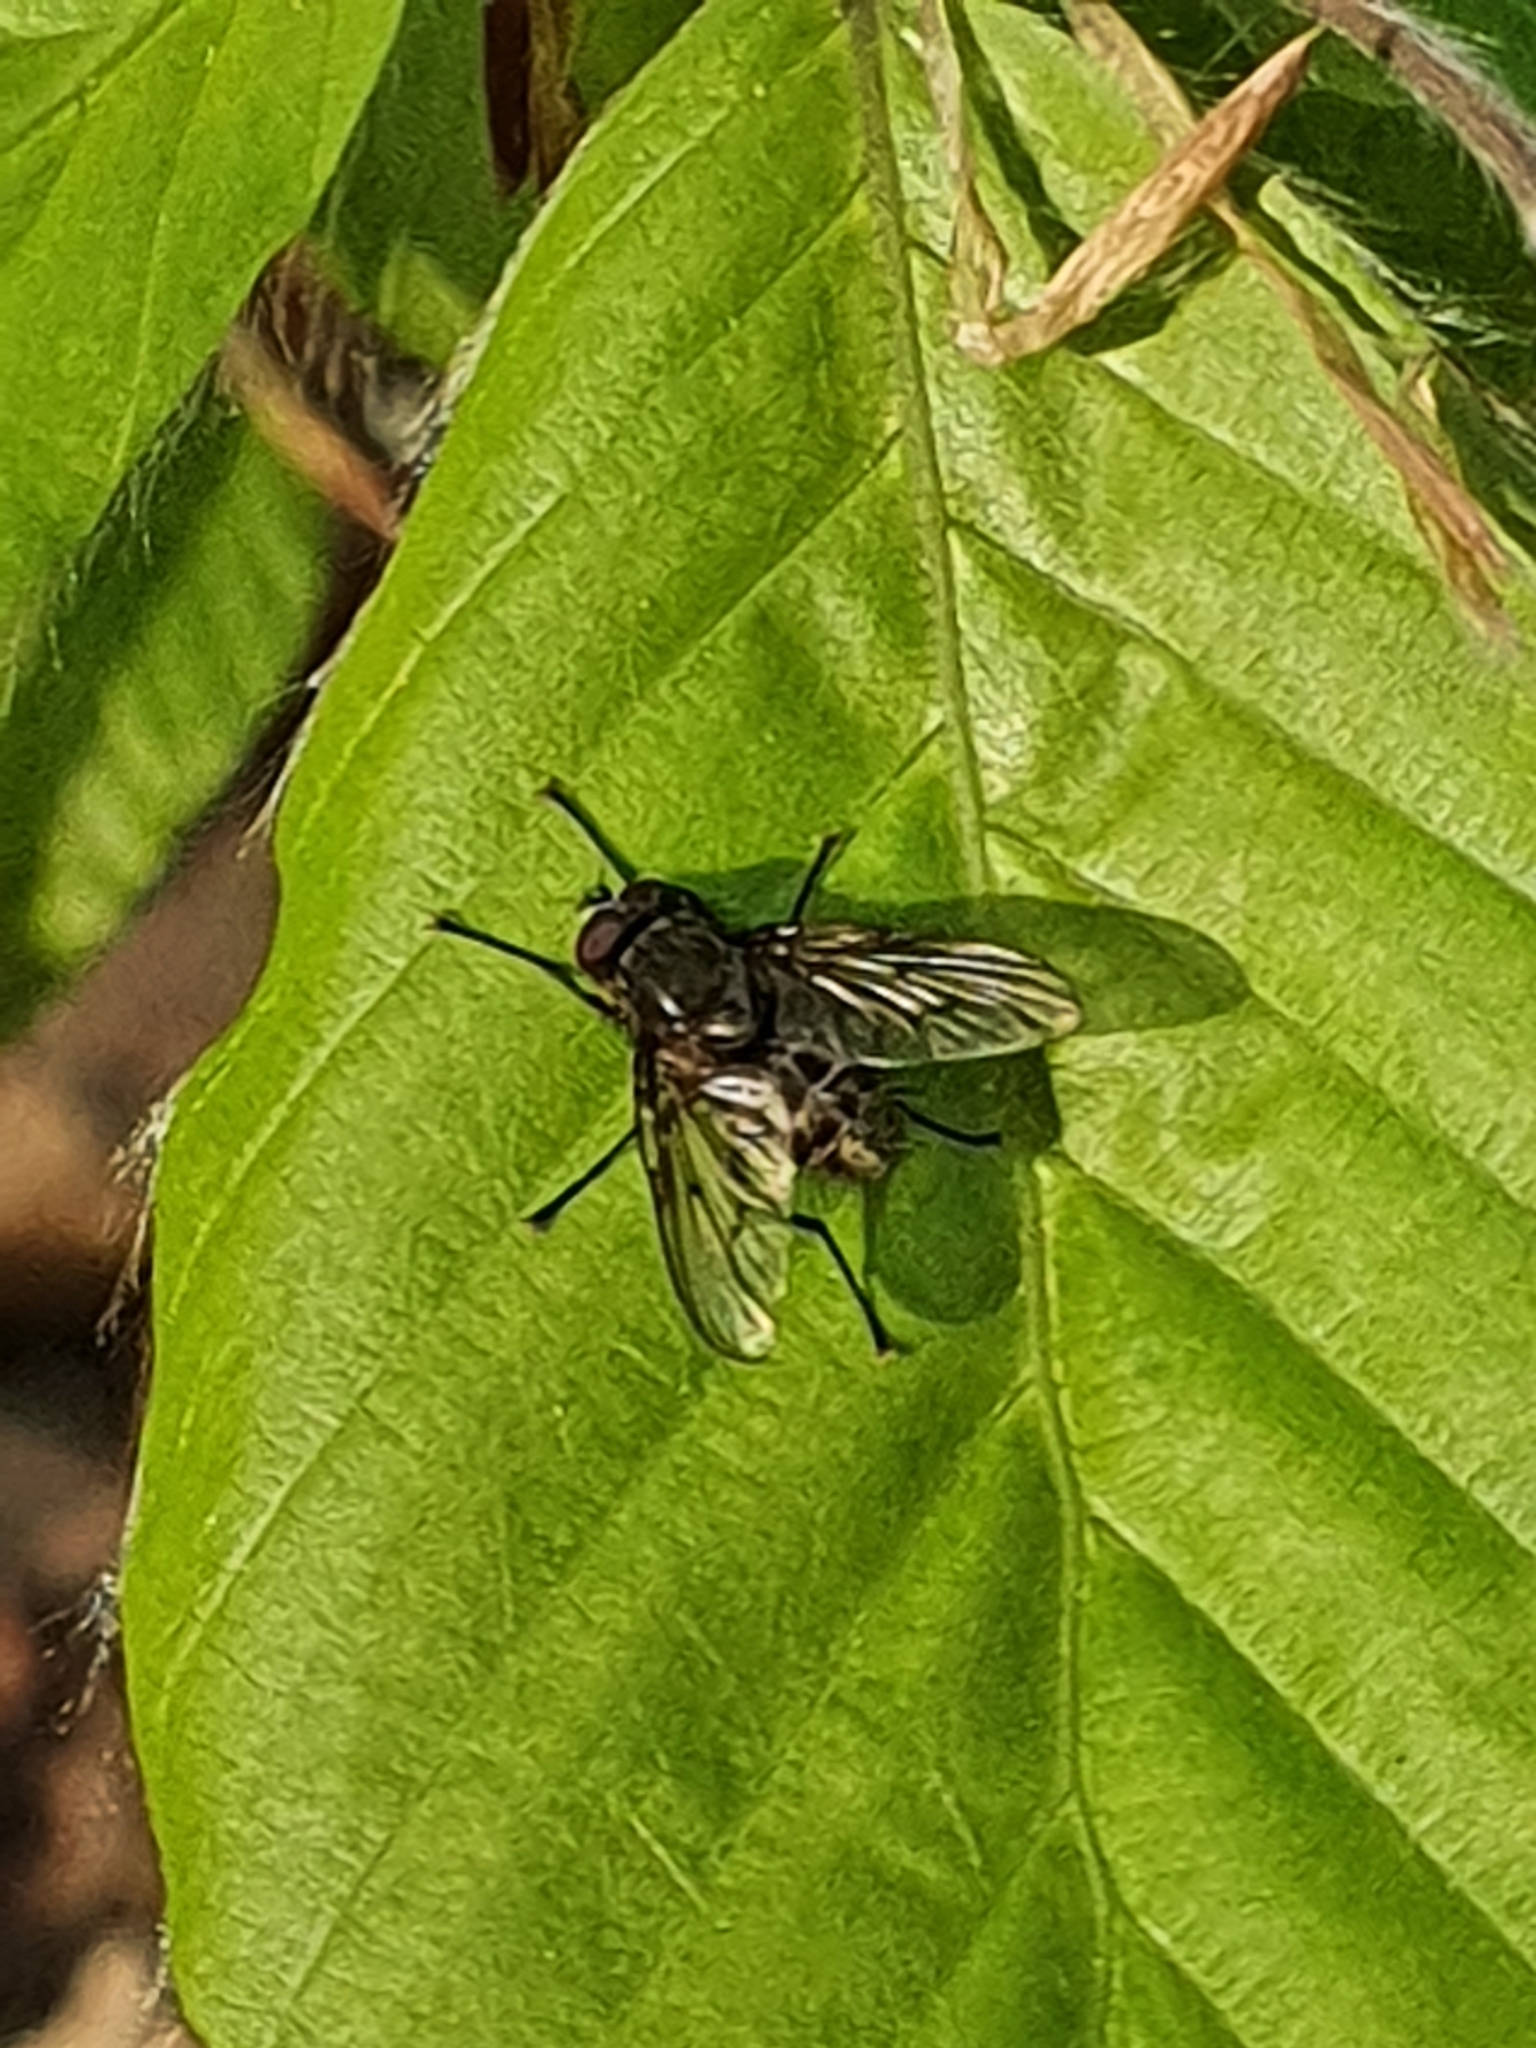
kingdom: Animalia
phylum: Arthropoda
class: Insecta
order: Diptera
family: Muscidae
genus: Helina
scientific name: Helina evecta
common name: Muscid fly
